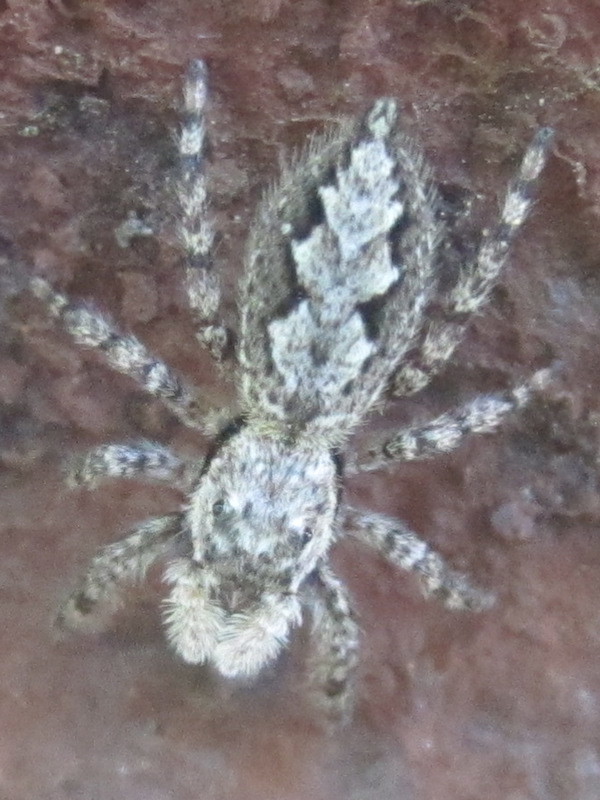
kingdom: Animalia
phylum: Arthropoda
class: Arachnida
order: Araneae
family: Salticidae
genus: Platycryptus
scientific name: Platycryptus undatus
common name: Tan jumping spider
